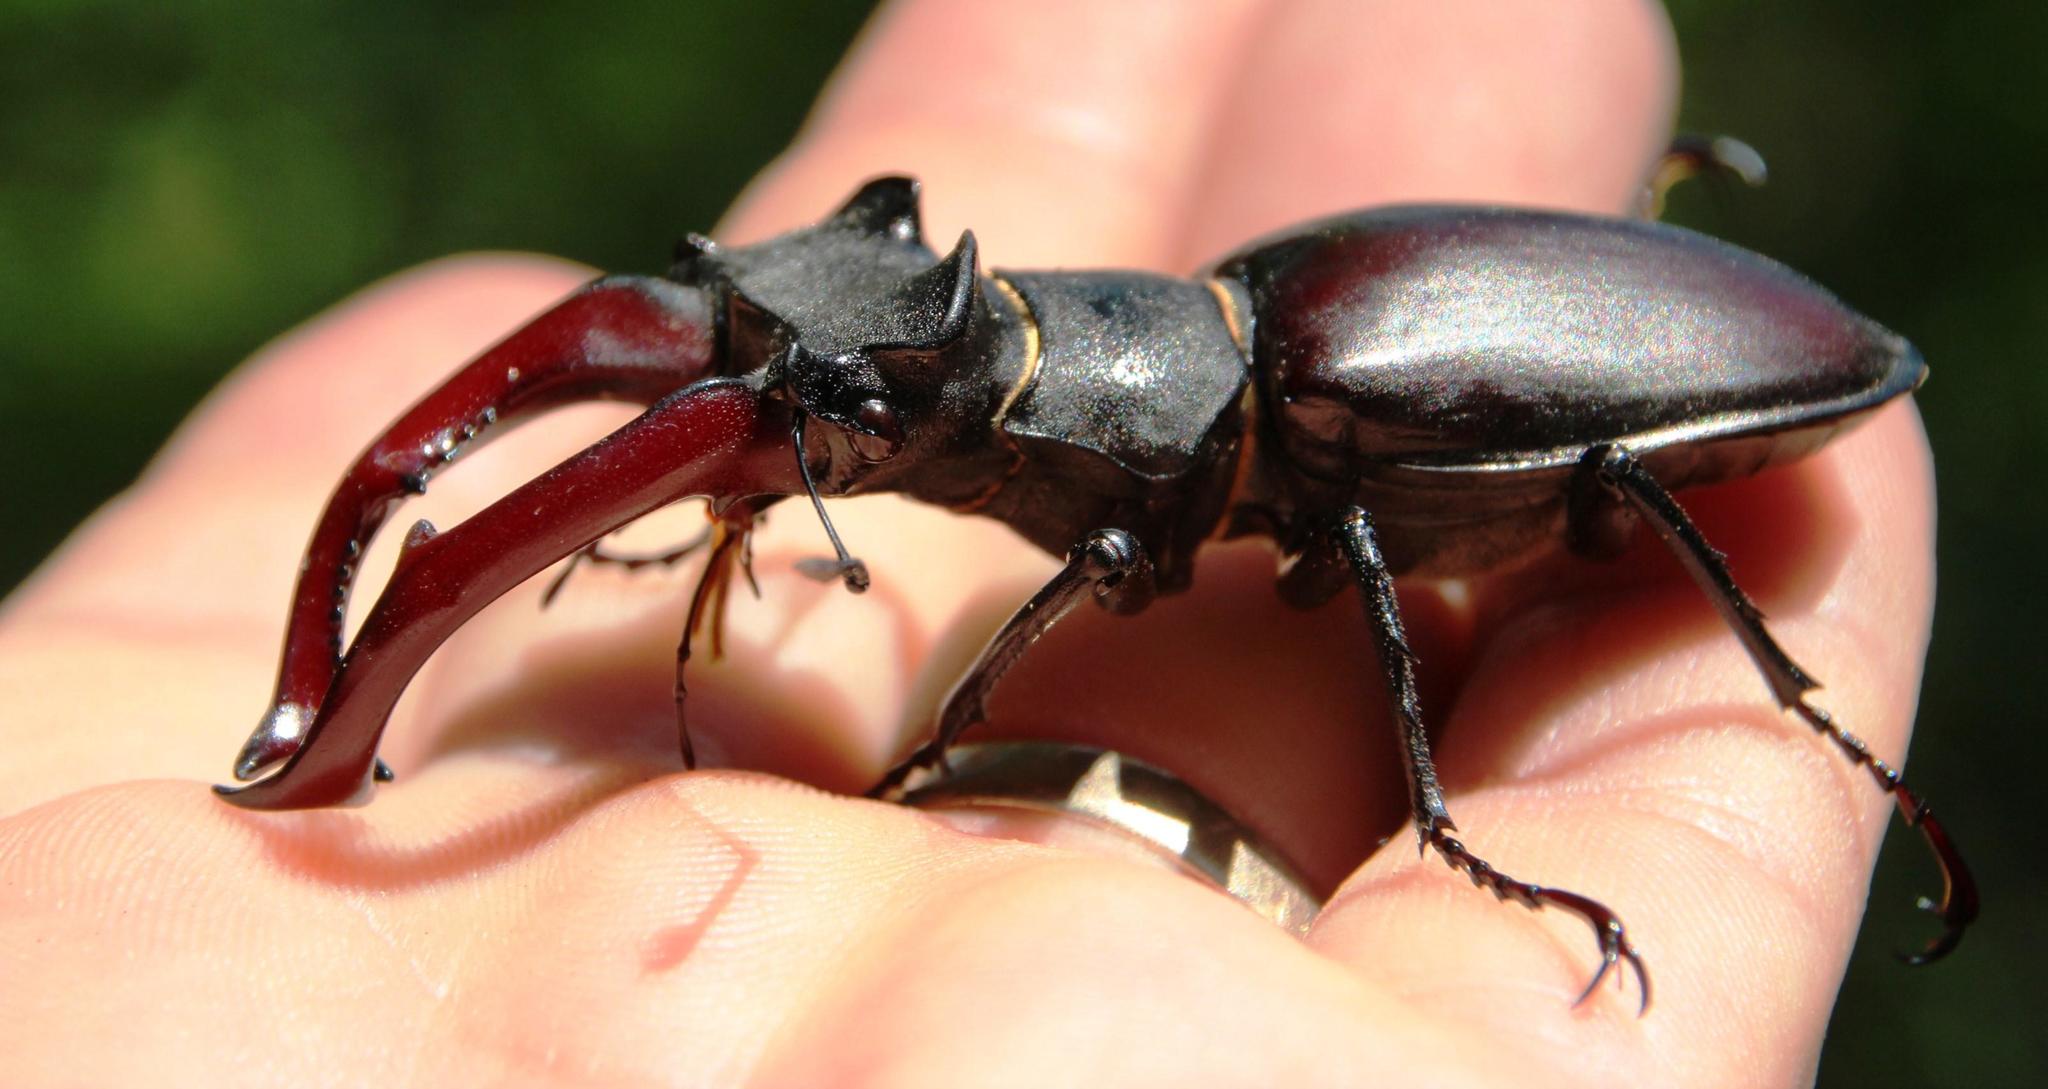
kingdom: Animalia
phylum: Arthropoda
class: Insecta
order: Coleoptera
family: Lucanidae
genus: Lucanus
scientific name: Lucanus cervus
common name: Stag beetle
